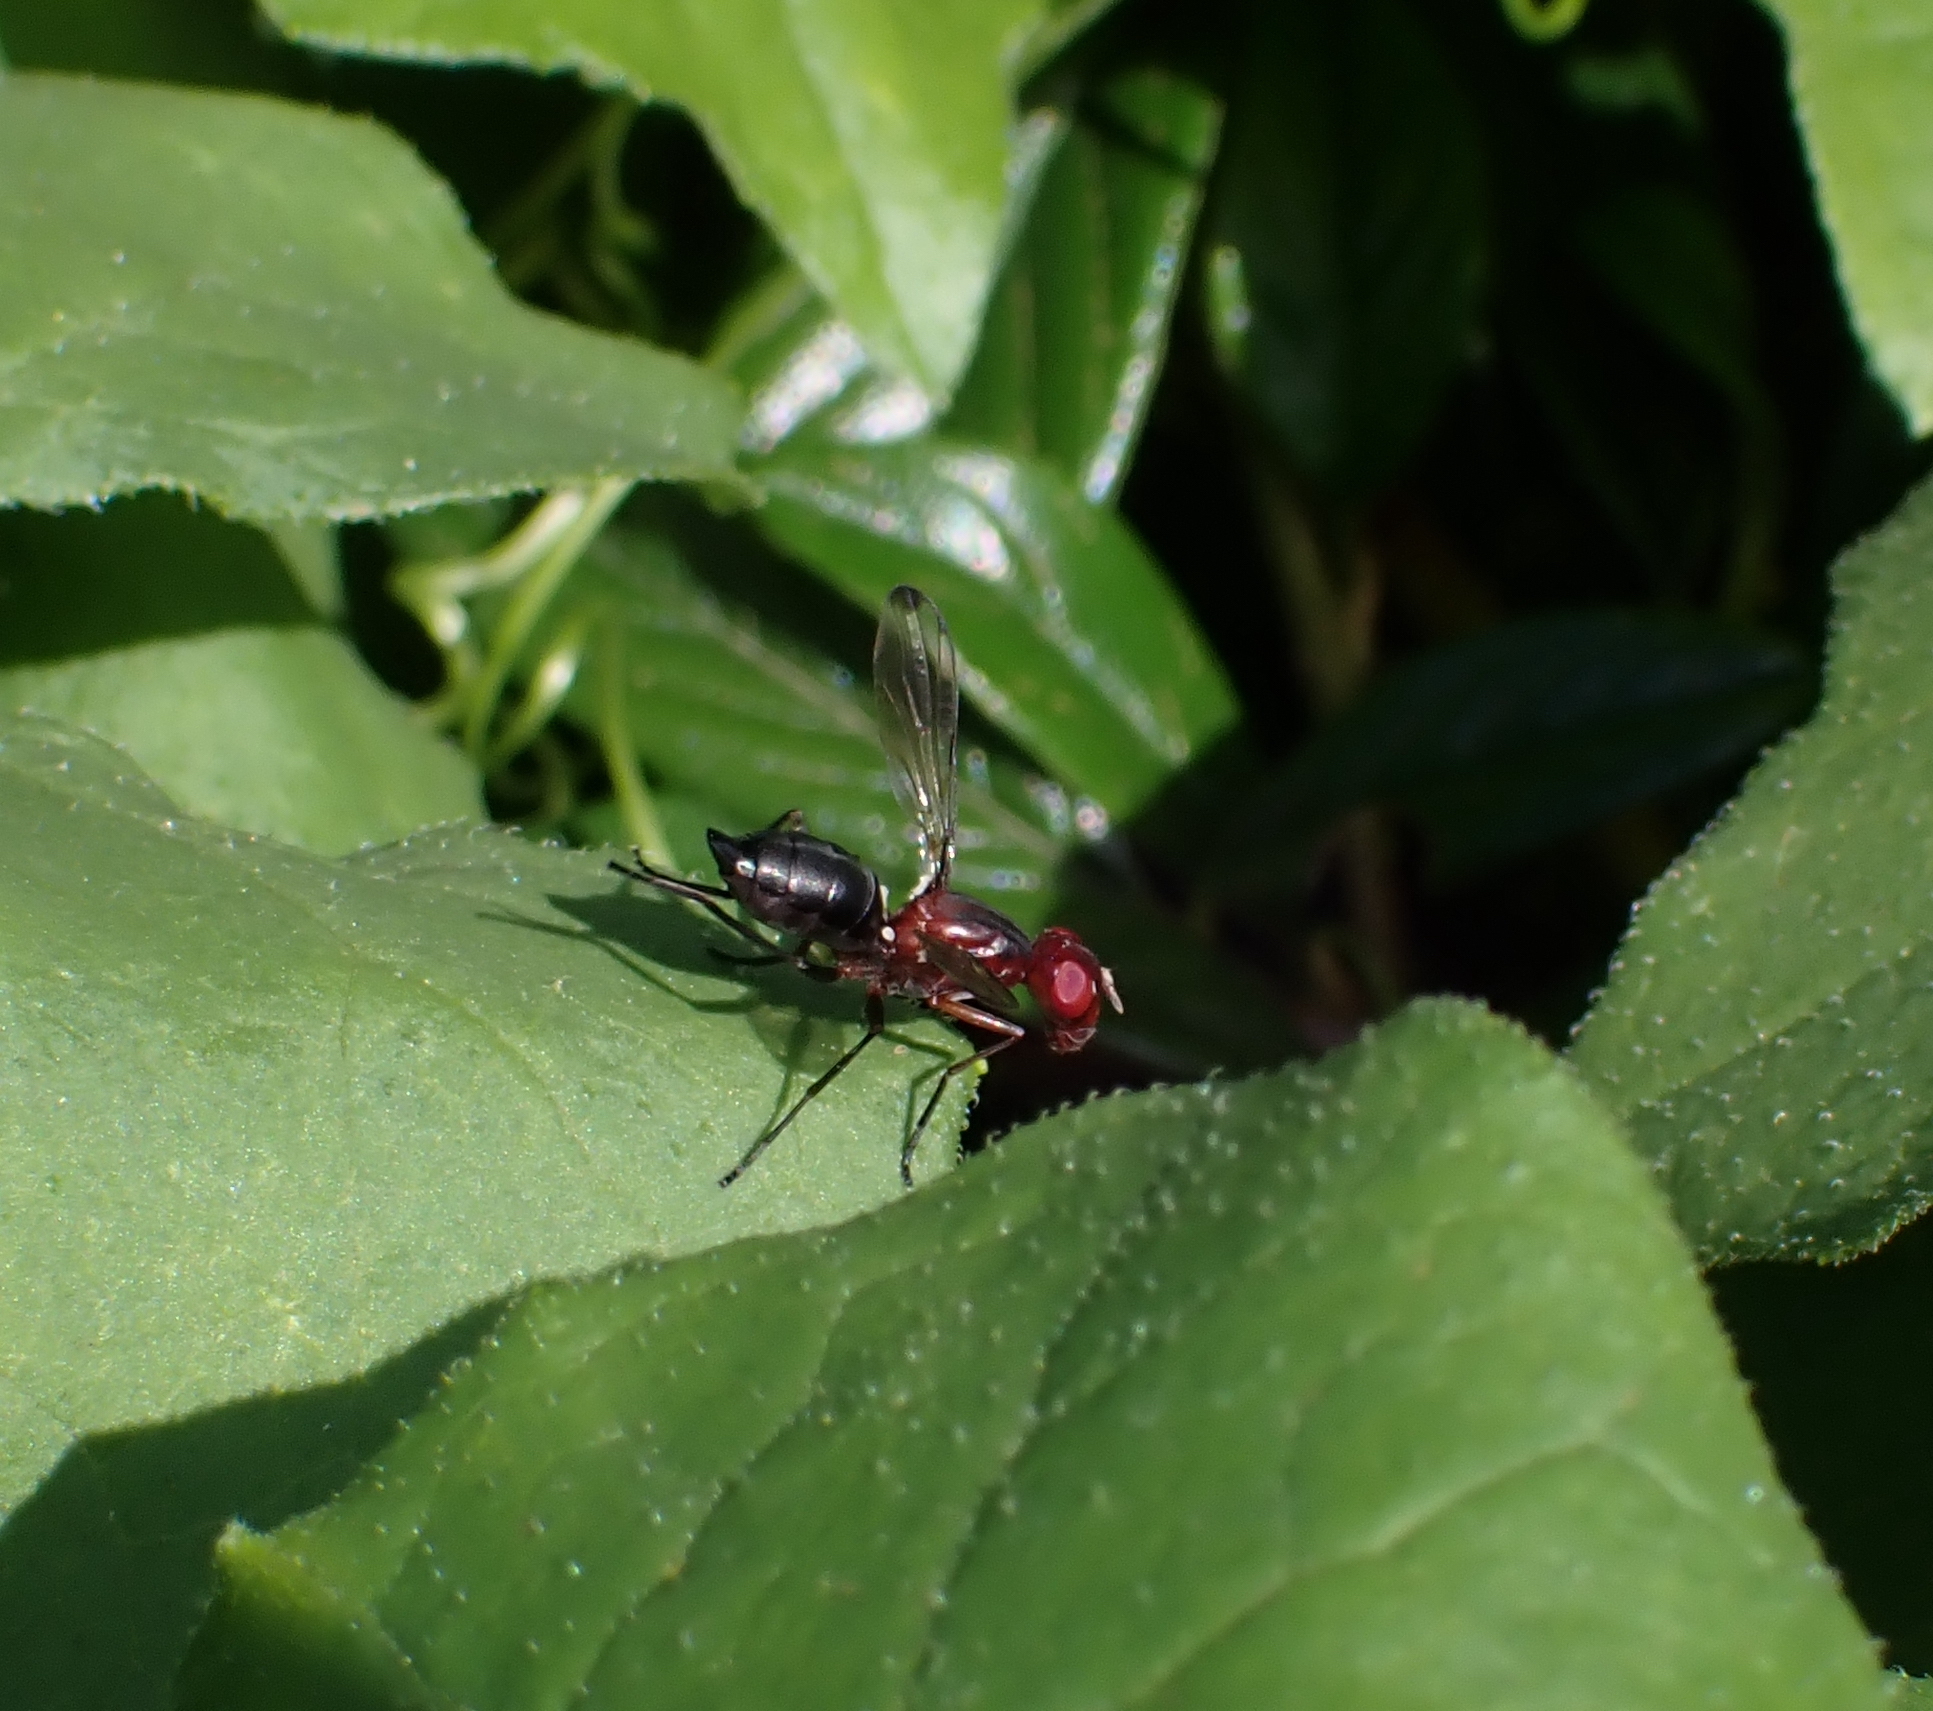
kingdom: Animalia
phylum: Arthropoda
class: Insecta
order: Diptera
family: Ulidiidae
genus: Cephalia
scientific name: Cephalia rufipes
